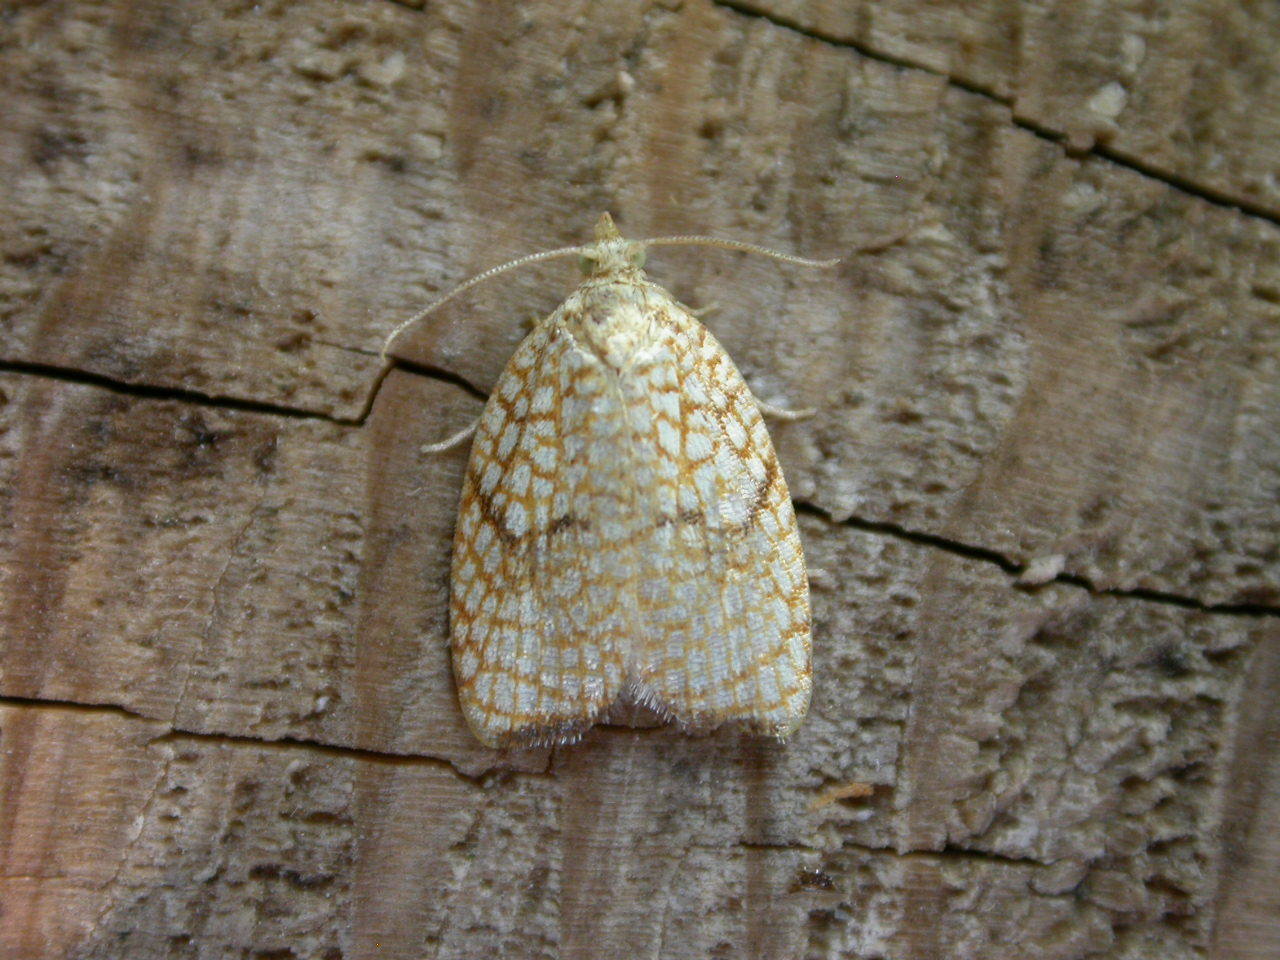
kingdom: Animalia
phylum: Arthropoda
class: Insecta
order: Lepidoptera
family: Tortricidae
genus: Acleris
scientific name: Acleris forsskaleana
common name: Maple button
